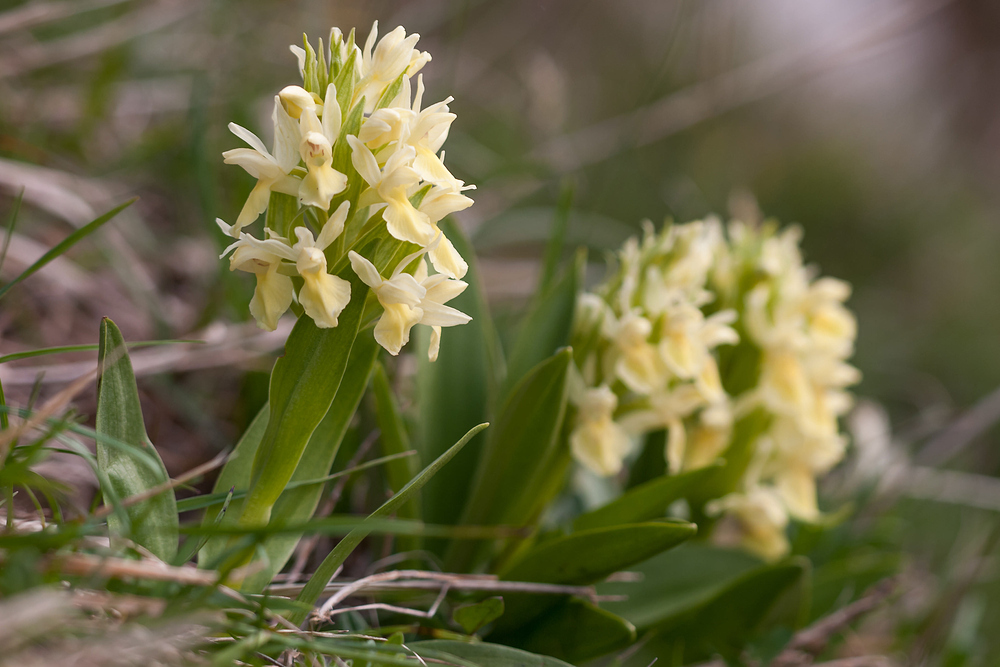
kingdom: Plantae
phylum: Tracheophyta
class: Liliopsida
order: Asparagales
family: Orchidaceae
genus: Dactylorhiza
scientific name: Dactylorhiza sambucina
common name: Elder-flowered orchid
